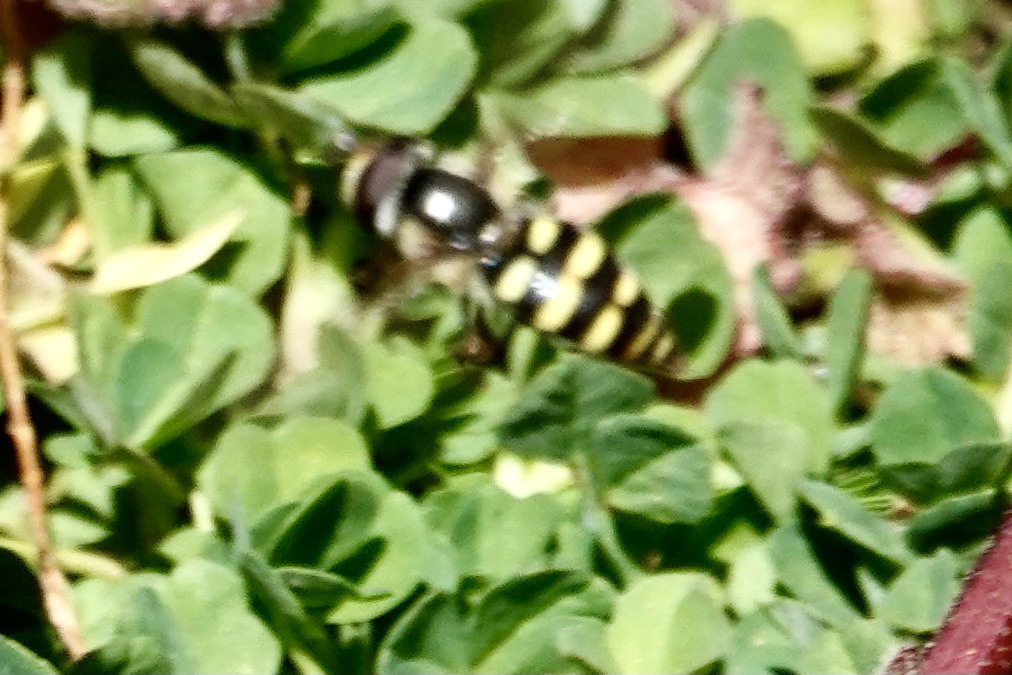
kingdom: Animalia
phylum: Arthropoda
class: Insecta
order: Diptera
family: Syrphidae
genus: Eupeodes
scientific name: Eupeodes
